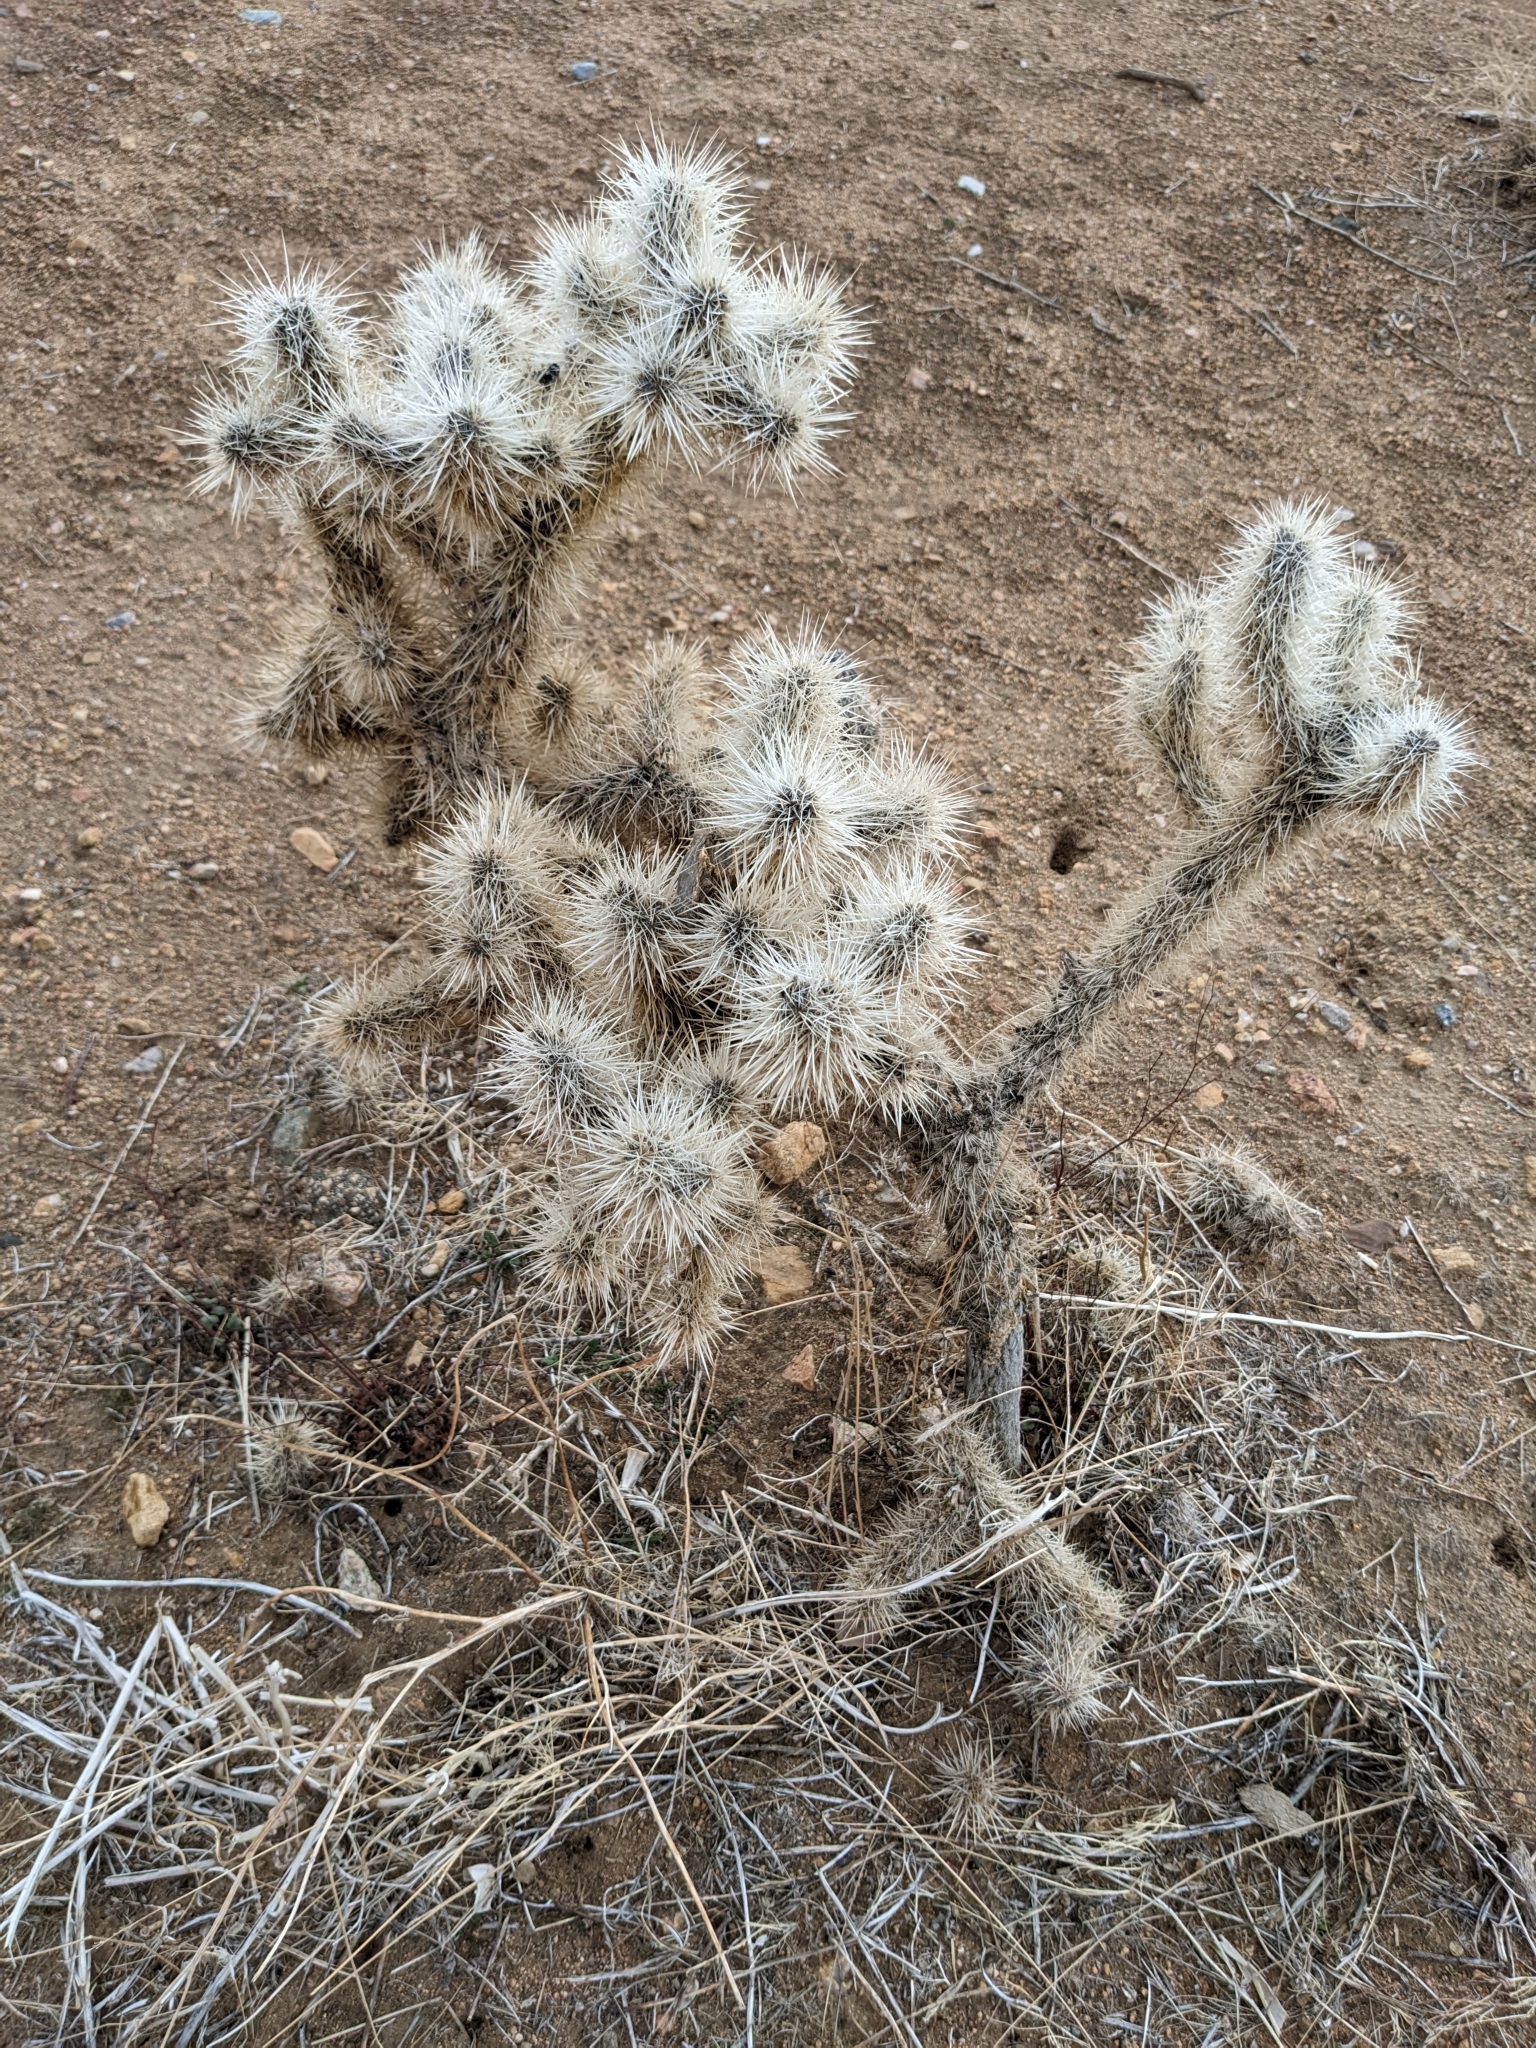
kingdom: Plantae
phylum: Tracheophyta
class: Magnoliopsida
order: Caryophyllales
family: Cactaceae
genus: Cylindropuntia
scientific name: Cylindropuntia echinocarpa
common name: Ground cholla
